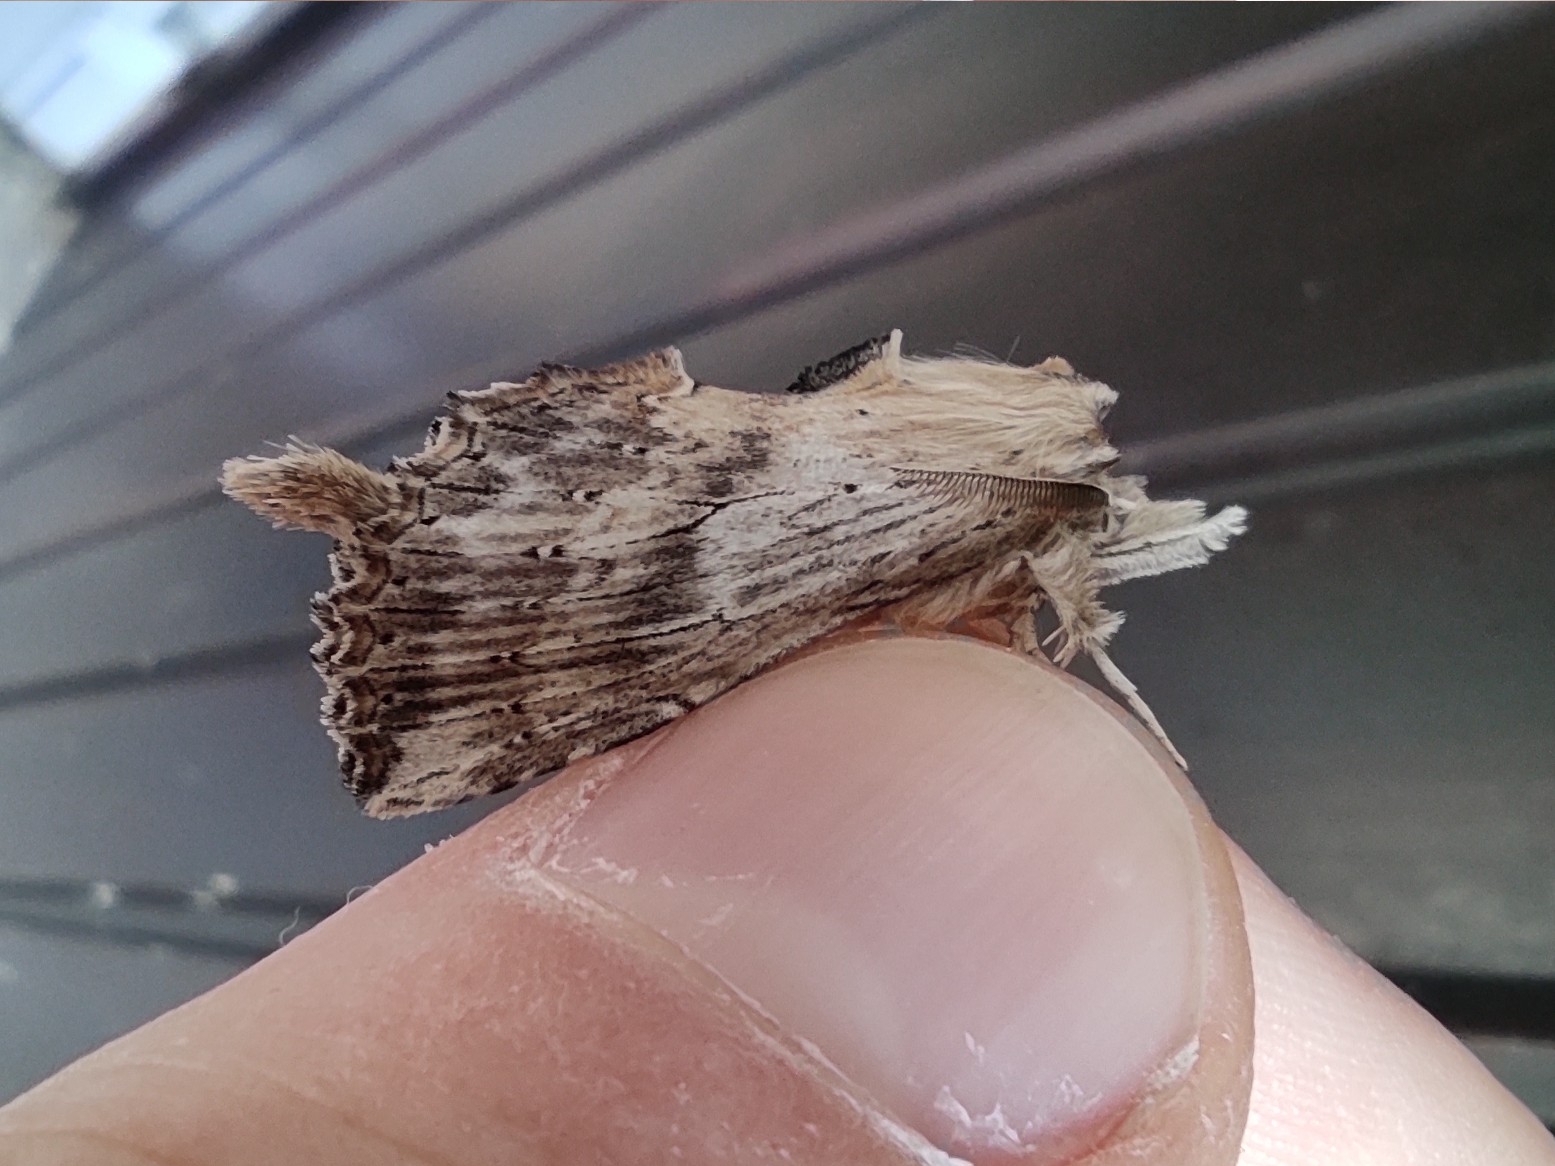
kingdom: Animalia
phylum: Arthropoda
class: Insecta
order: Lepidoptera
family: Notodontidae
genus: Pterostoma
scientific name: Pterostoma palpina
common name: Pale prominent
